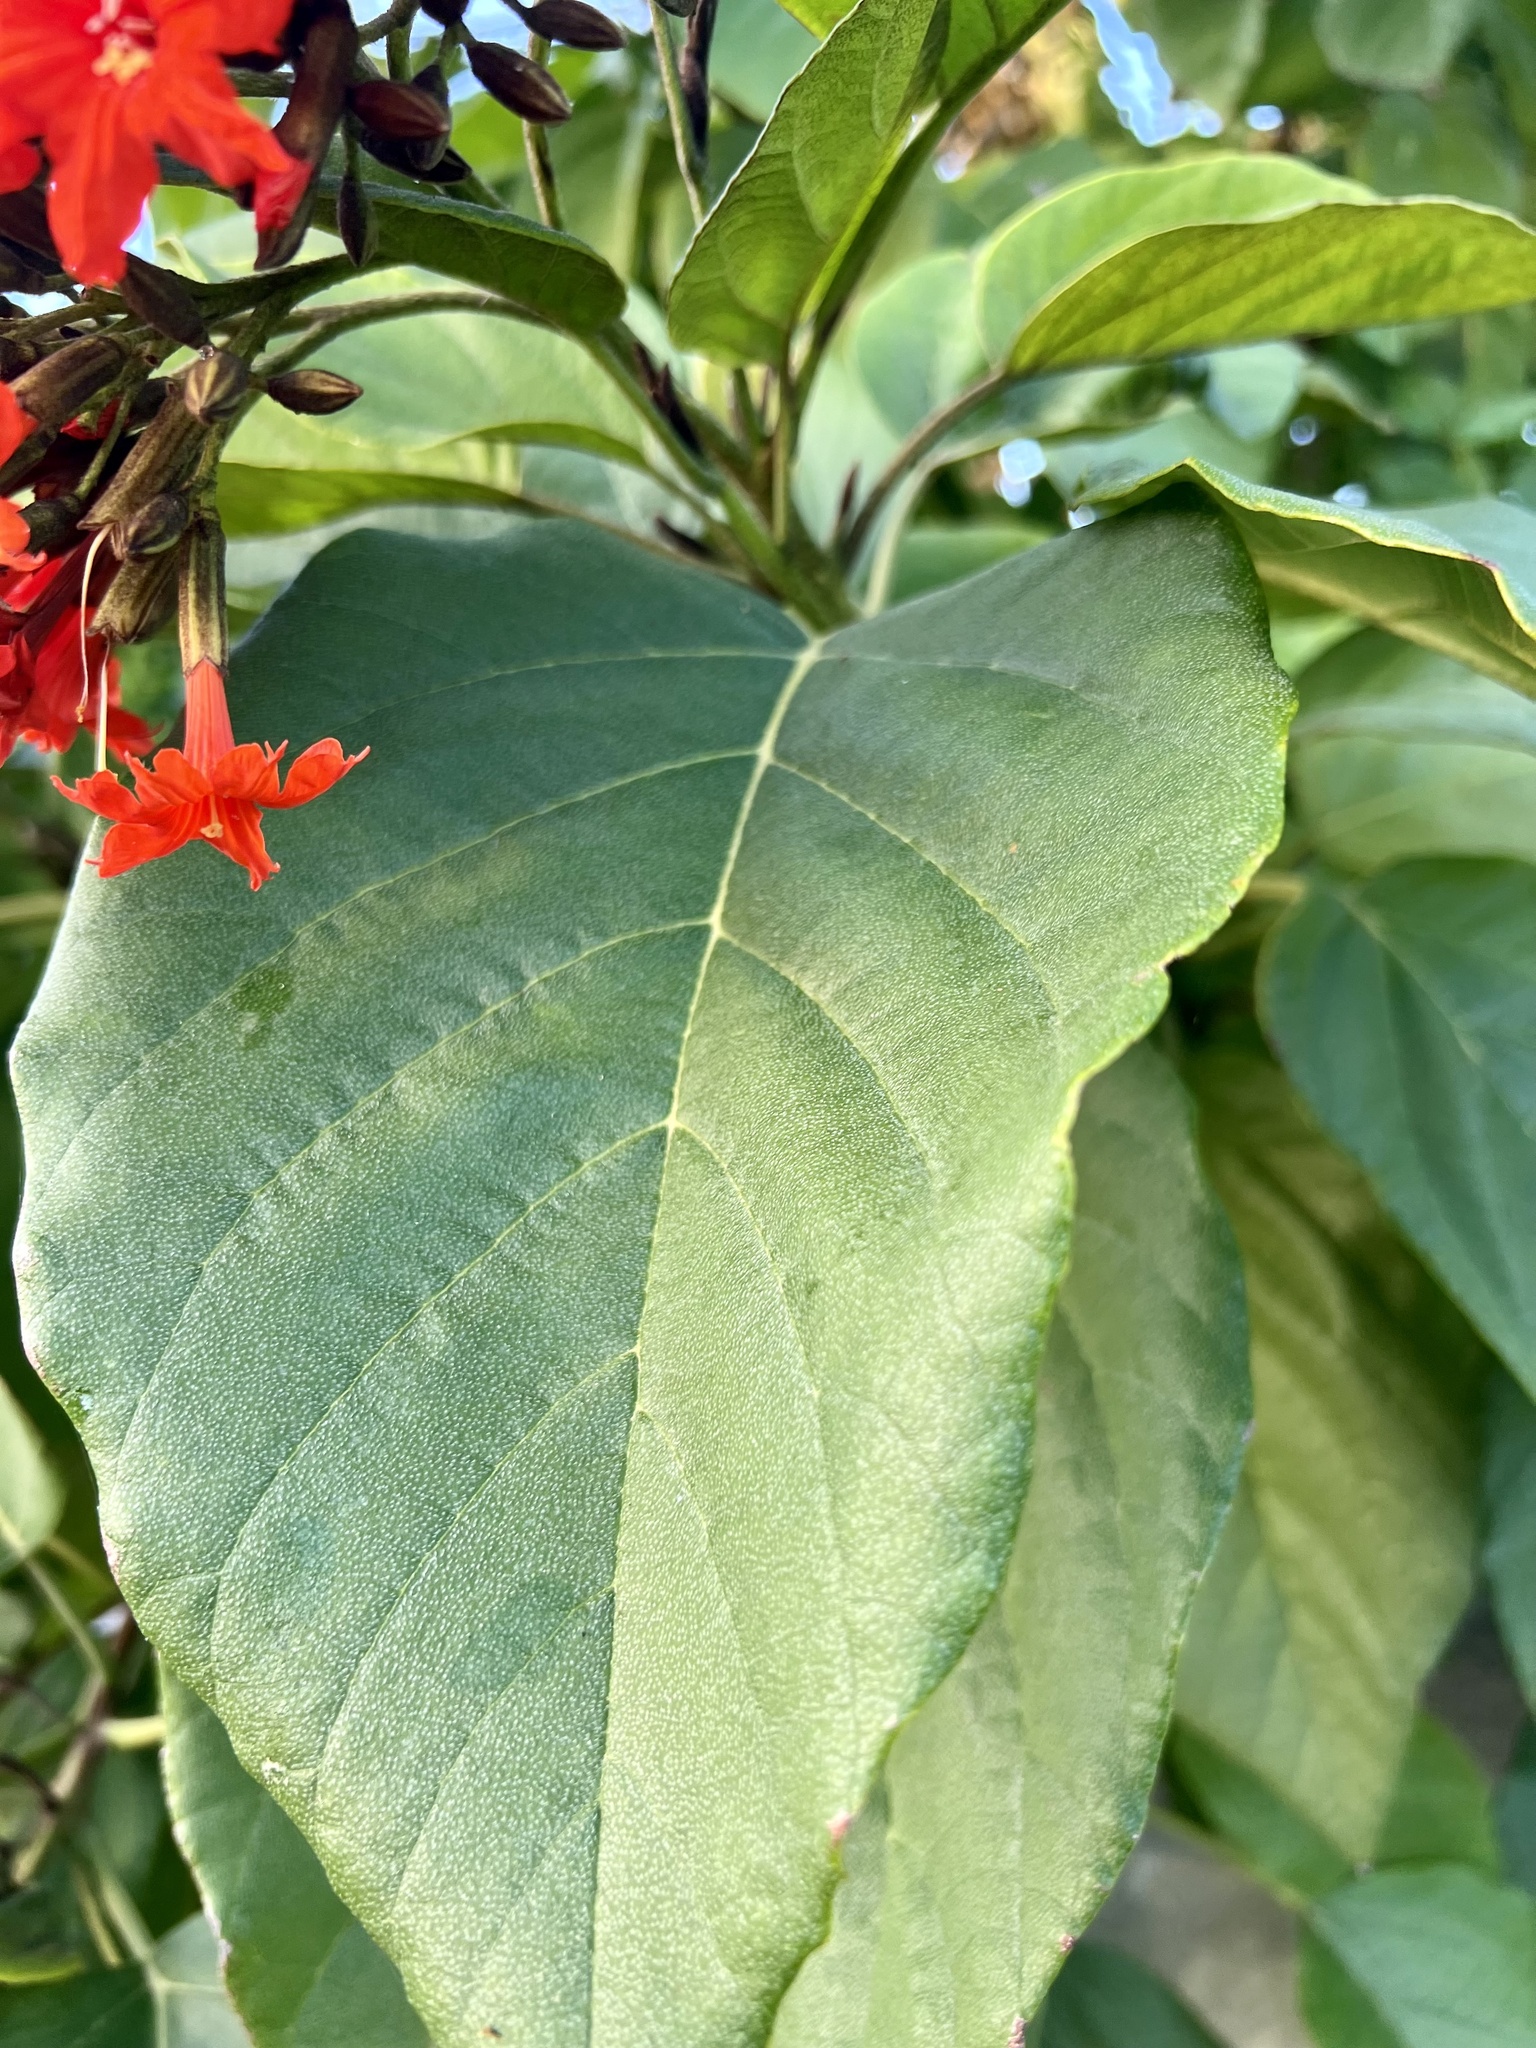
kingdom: Plantae
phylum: Tracheophyta
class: Magnoliopsida
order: Boraginales
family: Cordiaceae
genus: Cordia
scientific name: Cordia sebestena
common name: Largeleaf geigertree
